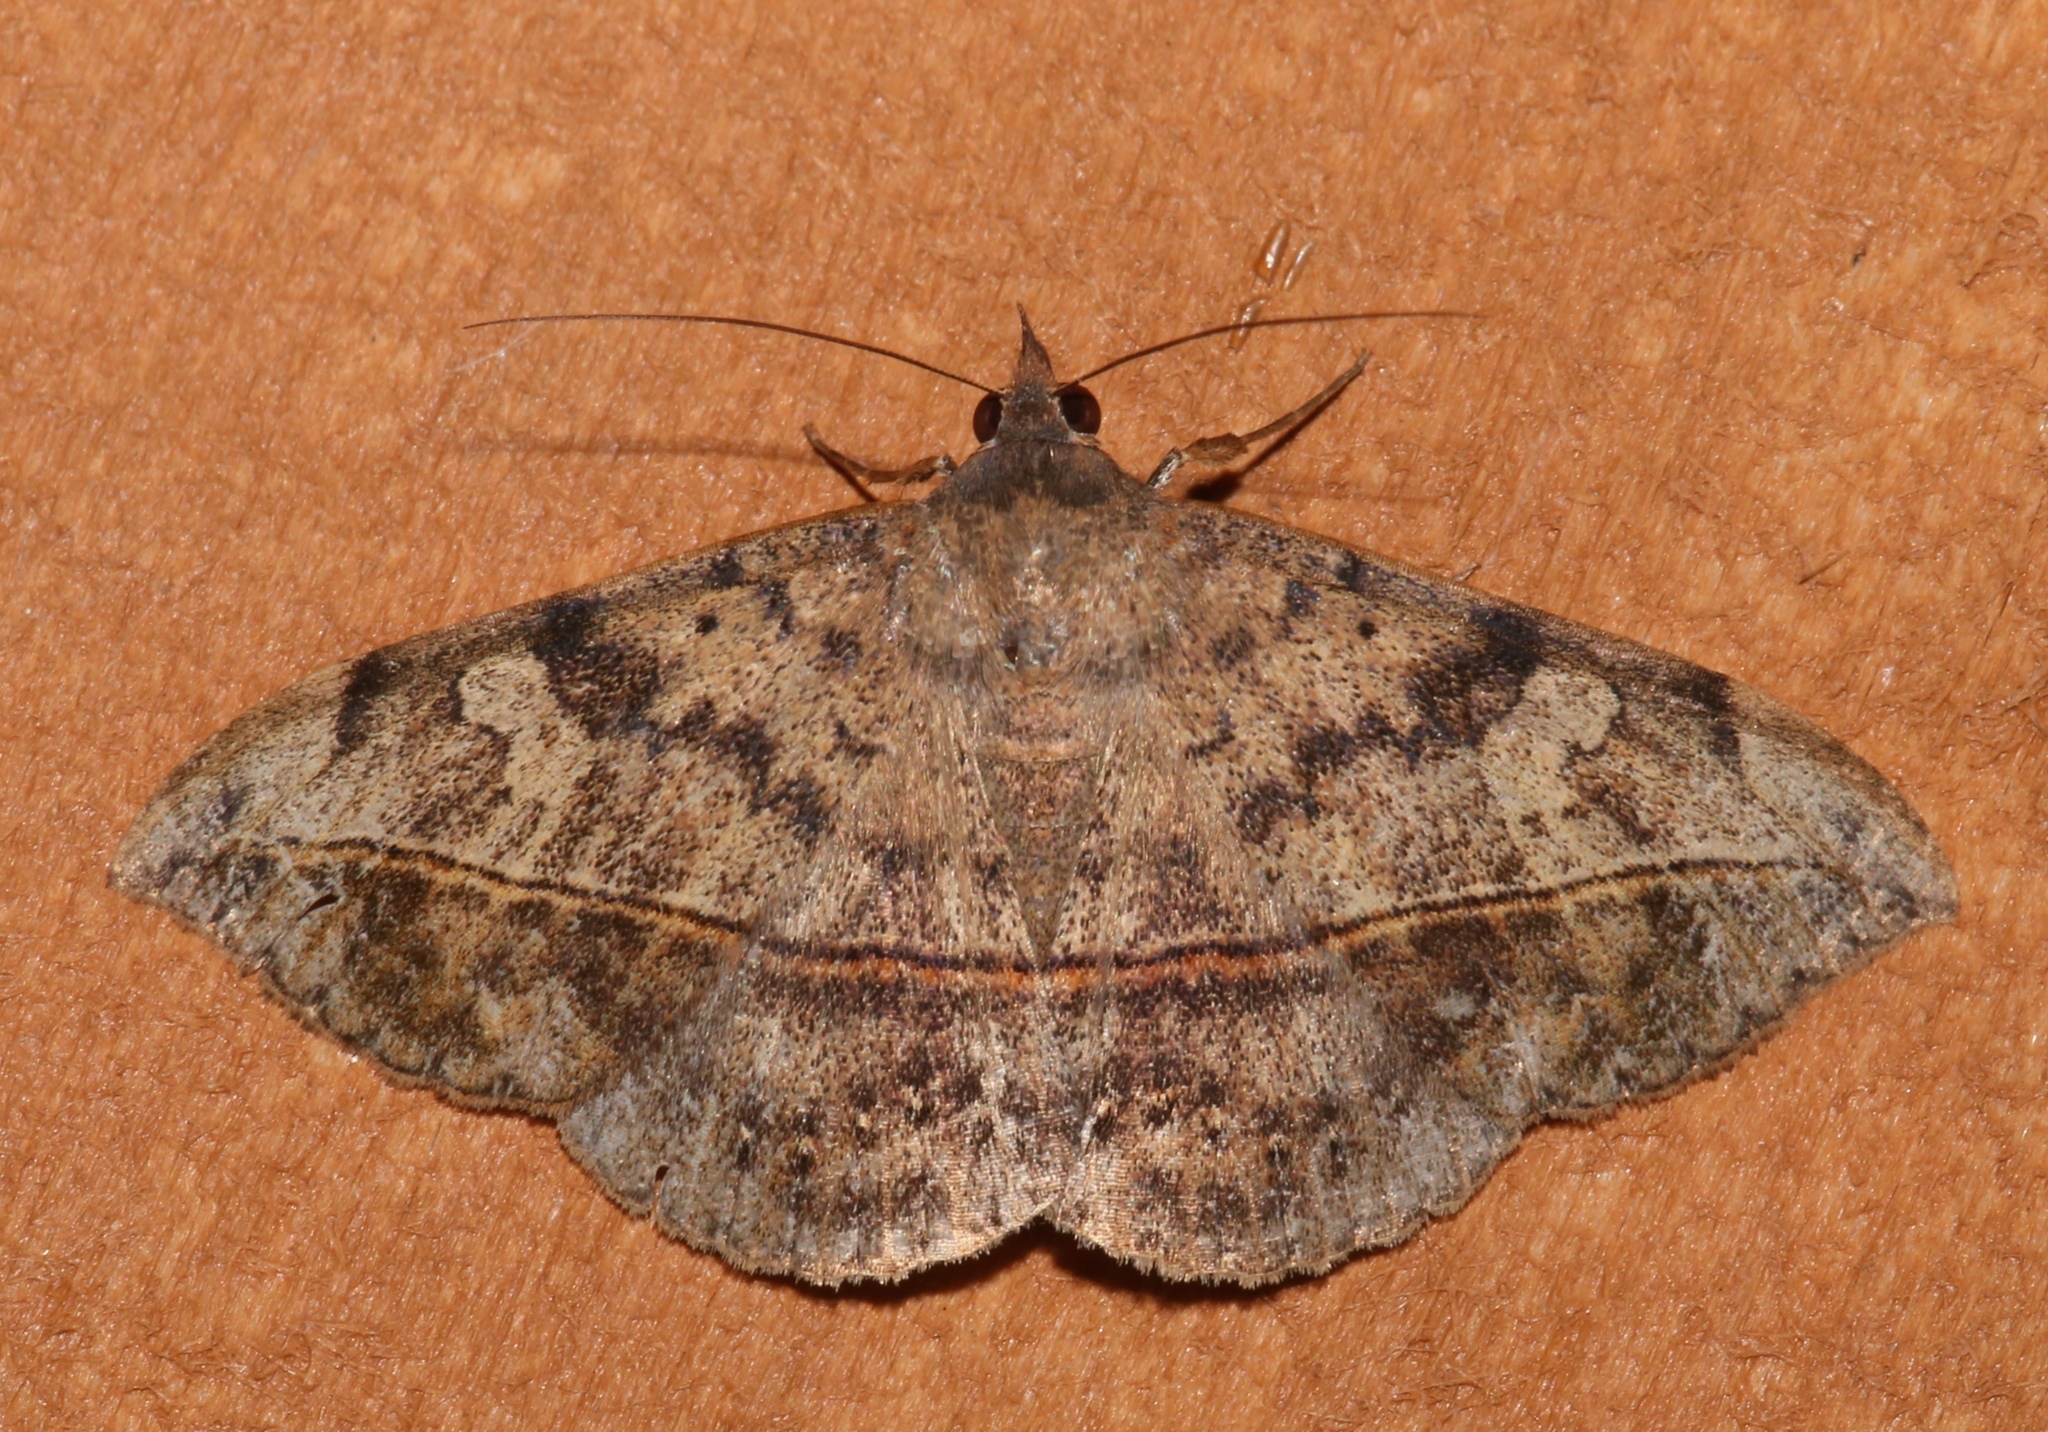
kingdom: Animalia
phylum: Arthropoda
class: Insecta
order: Lepidoptera
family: Erebidae
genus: Anticarsia
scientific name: Anticarsia gemmatalis
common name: Cutworm moth
